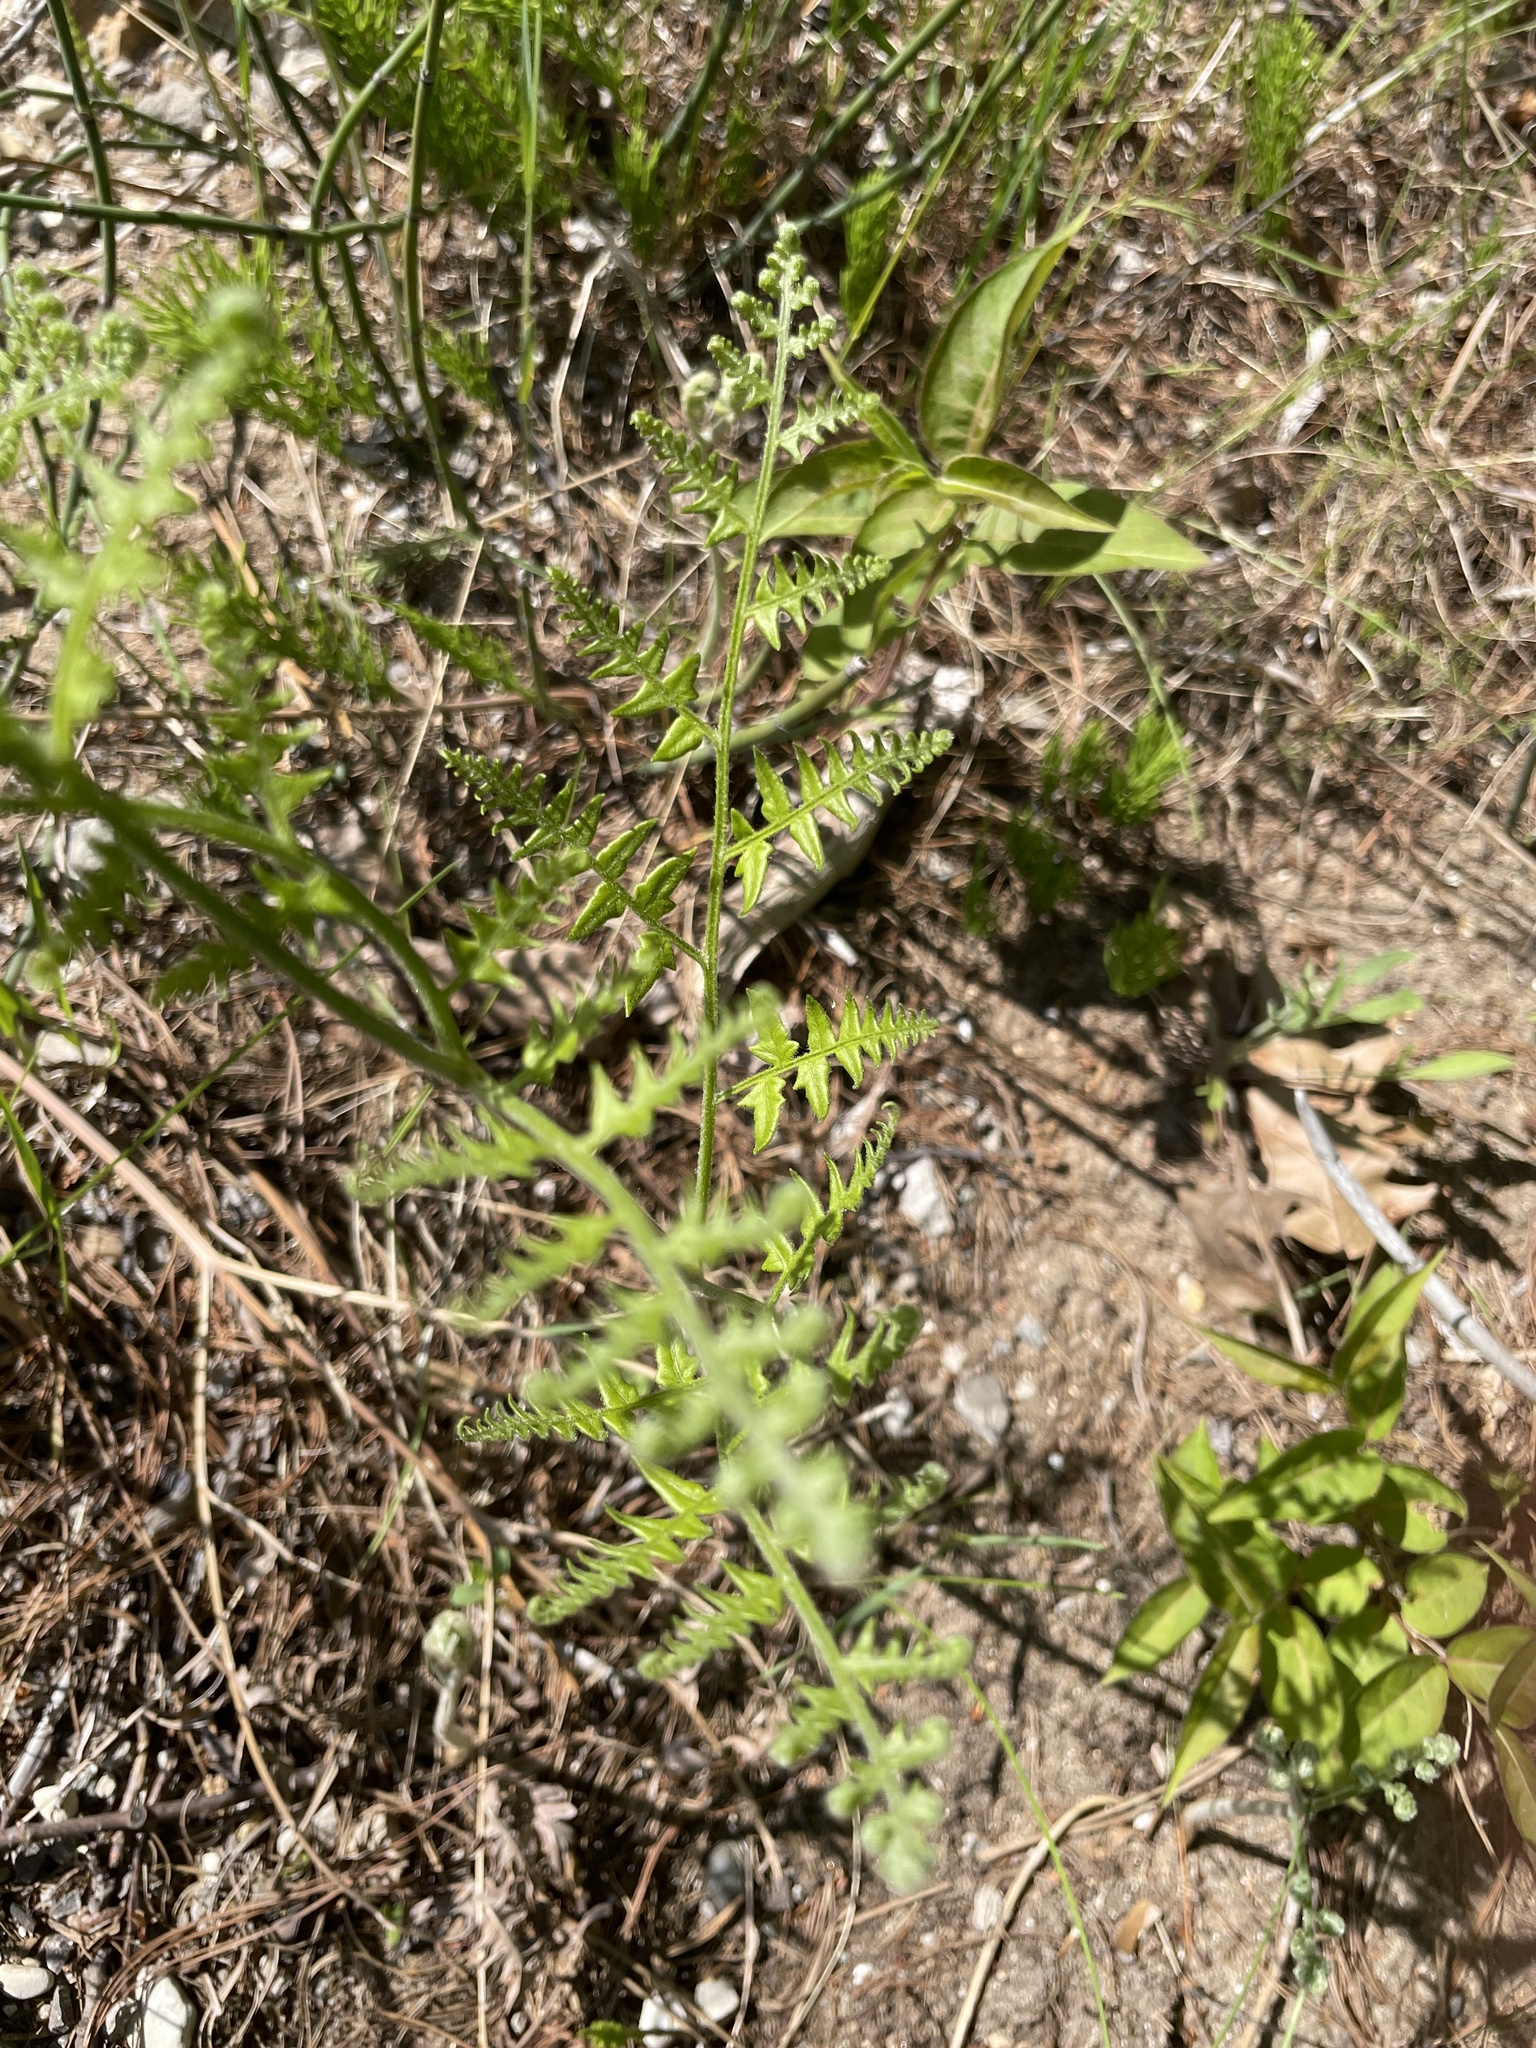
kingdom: Plantae
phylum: Tracheophyta
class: Polypodiopsida
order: Polypodiales
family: Dennstaedtiaceae
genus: Pteridium
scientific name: Pteridium aquilinum
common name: Bracken
